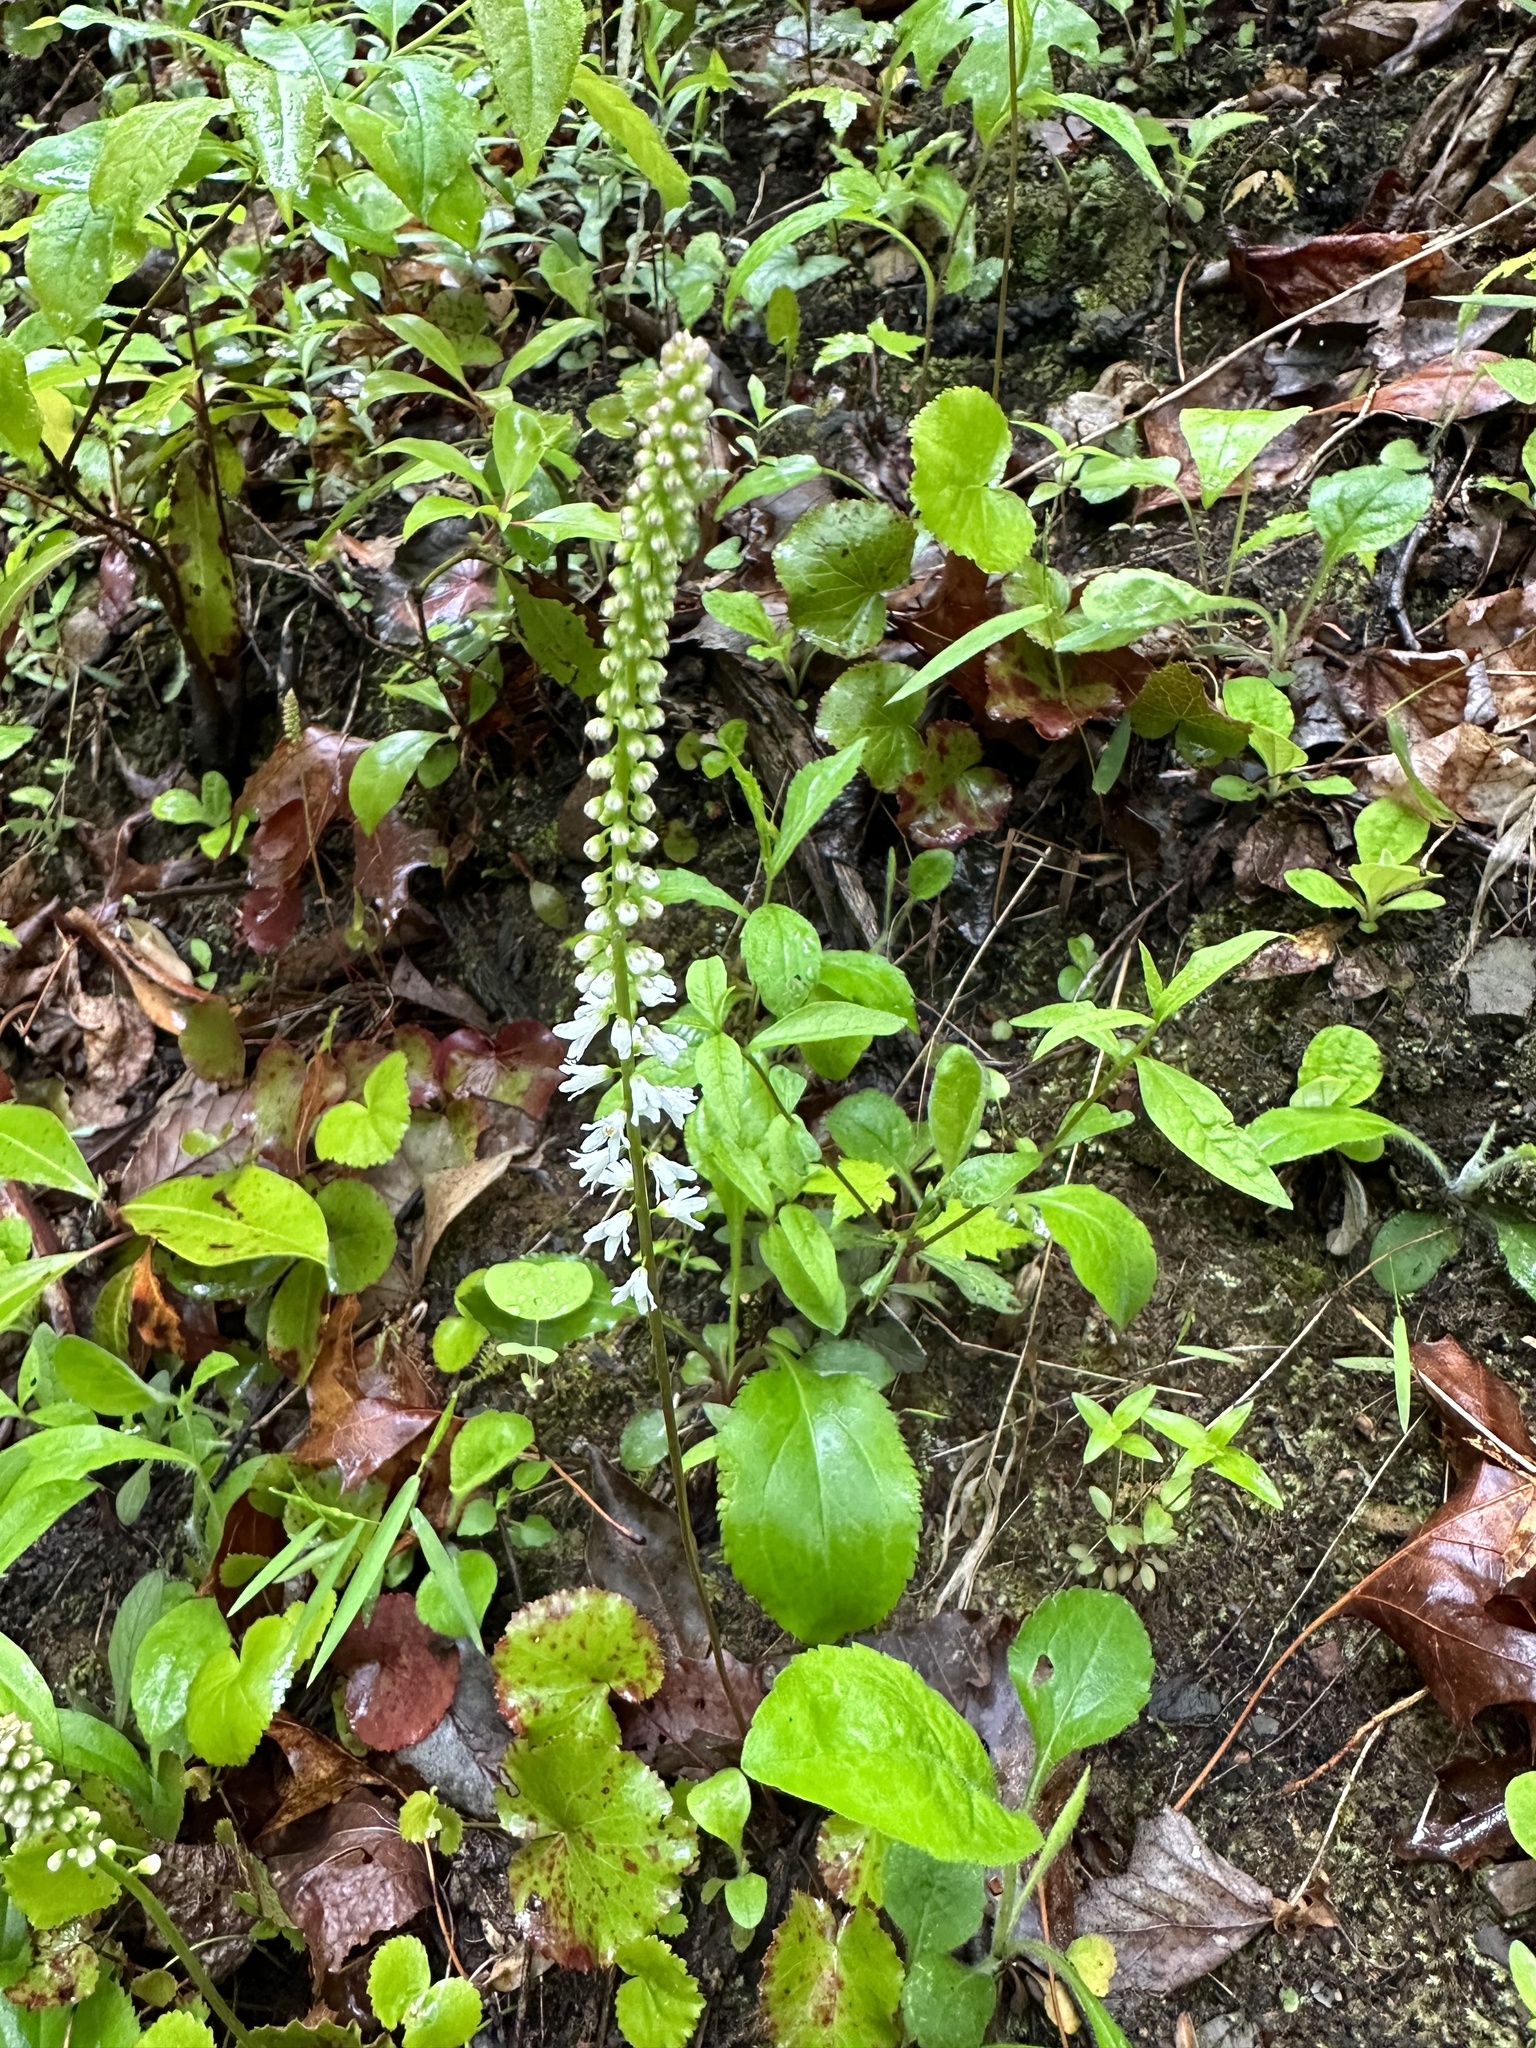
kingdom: Plantae
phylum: Tracheophyta
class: Magnoliopsida
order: Ericales
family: Diapensiaceae
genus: Galax
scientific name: Galax urceolata
